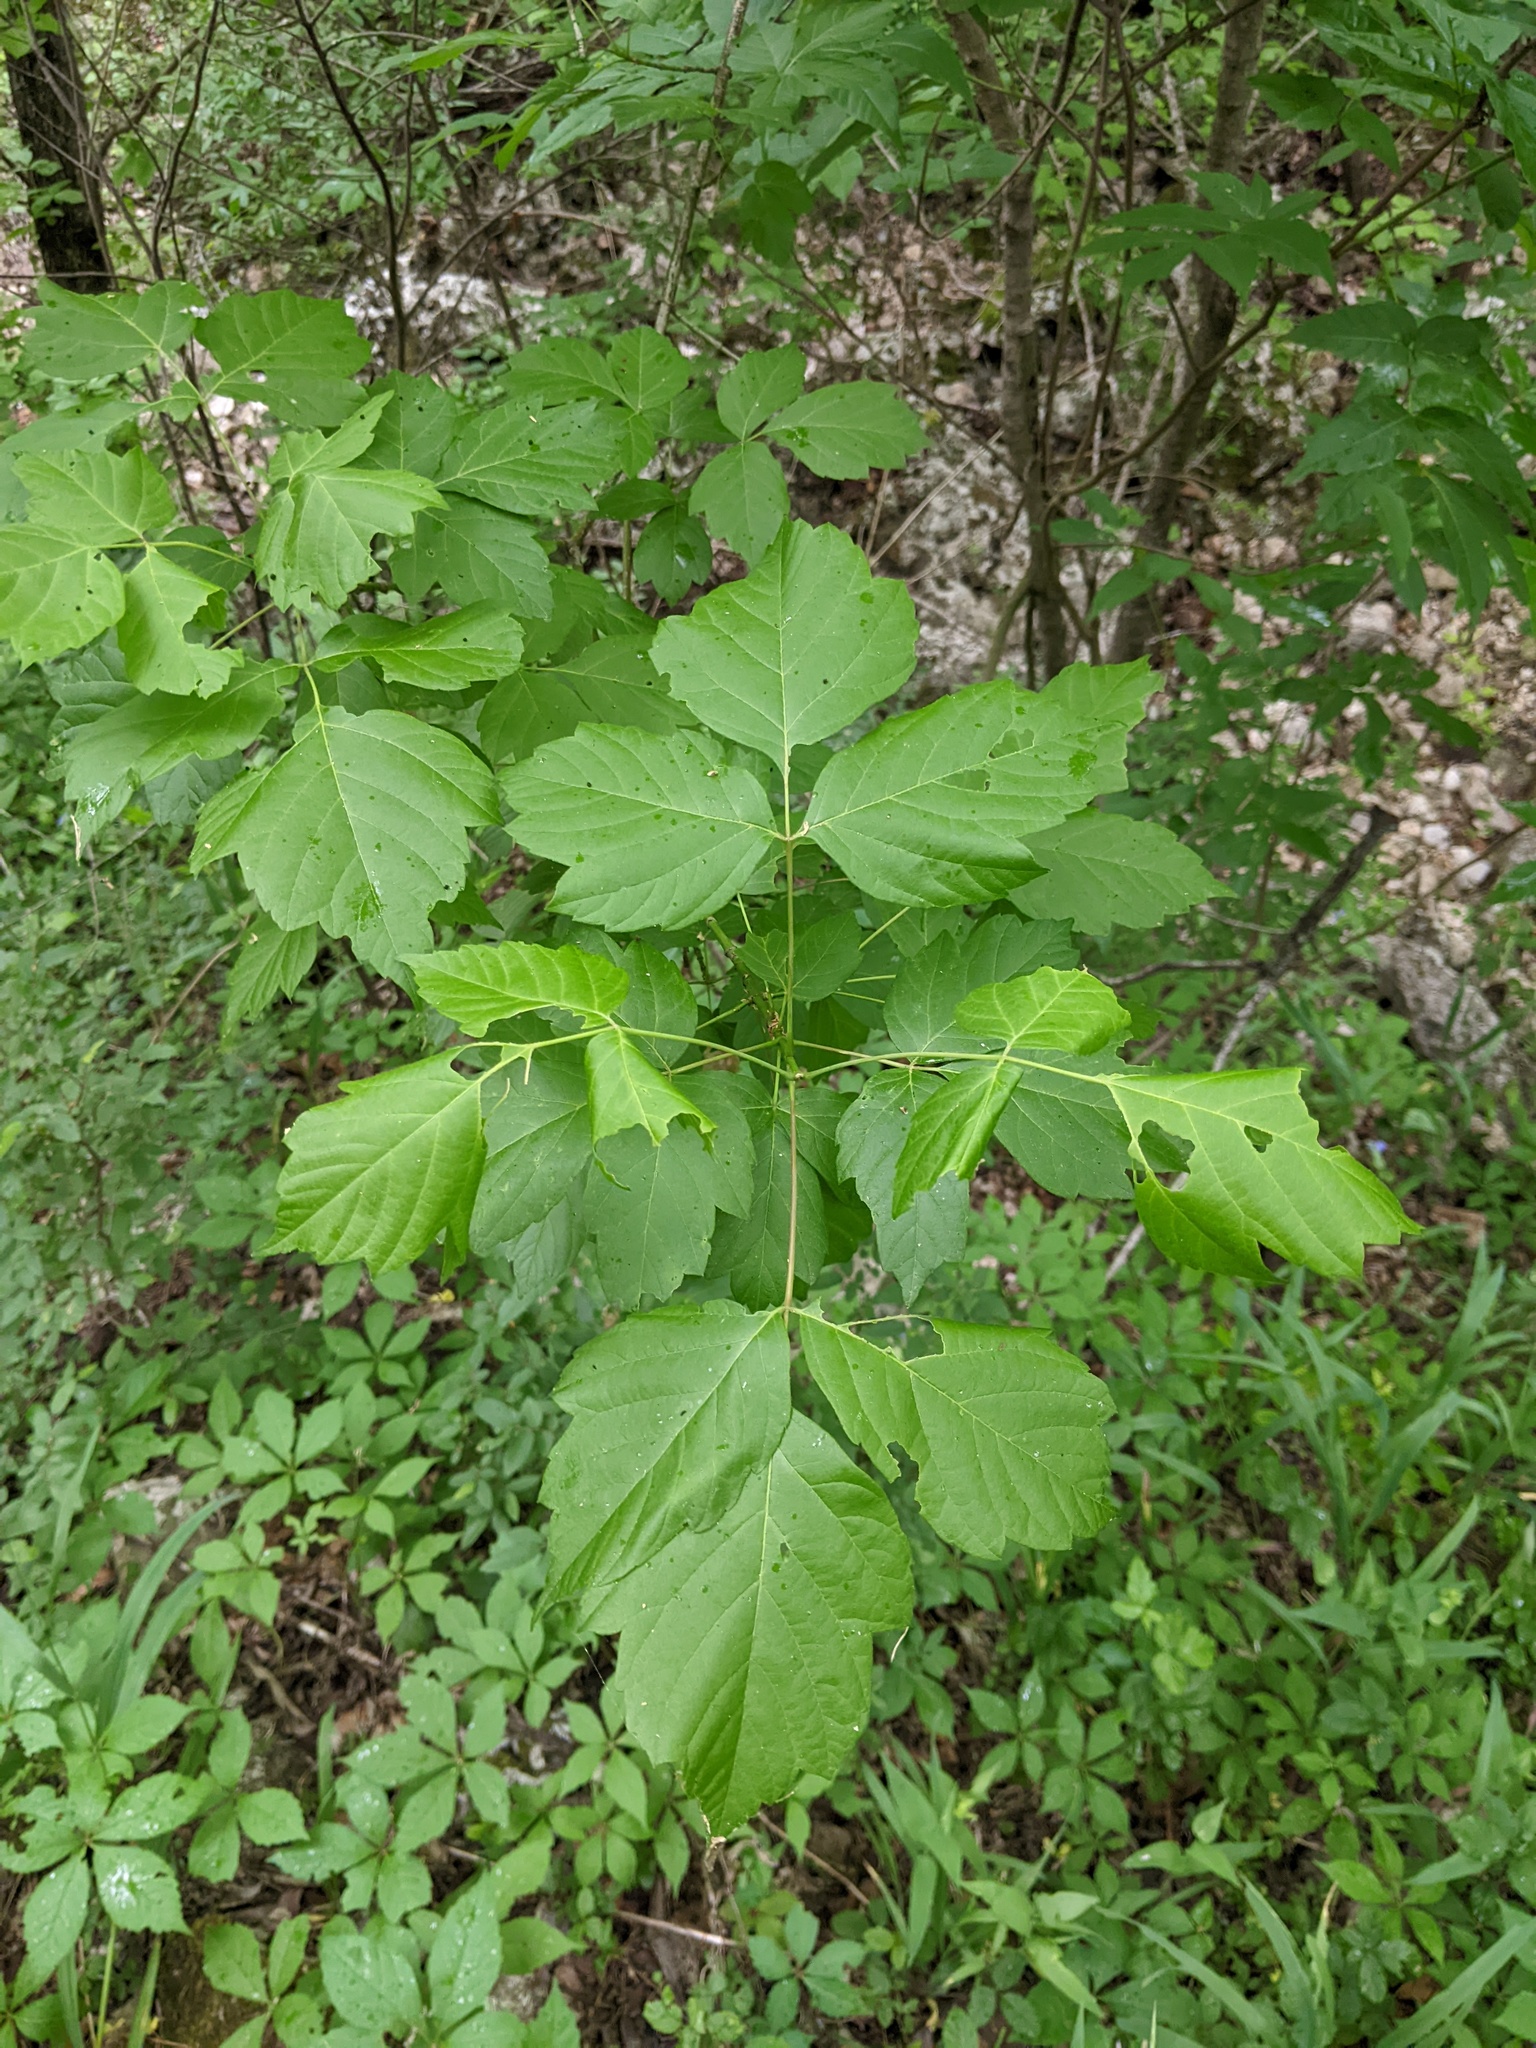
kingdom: Plantae
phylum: Tracheophyta
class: Magnoliopsida
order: Sapindales
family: Sapindaceae
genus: Acer
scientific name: Acer negundo
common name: Ashleaf maple
